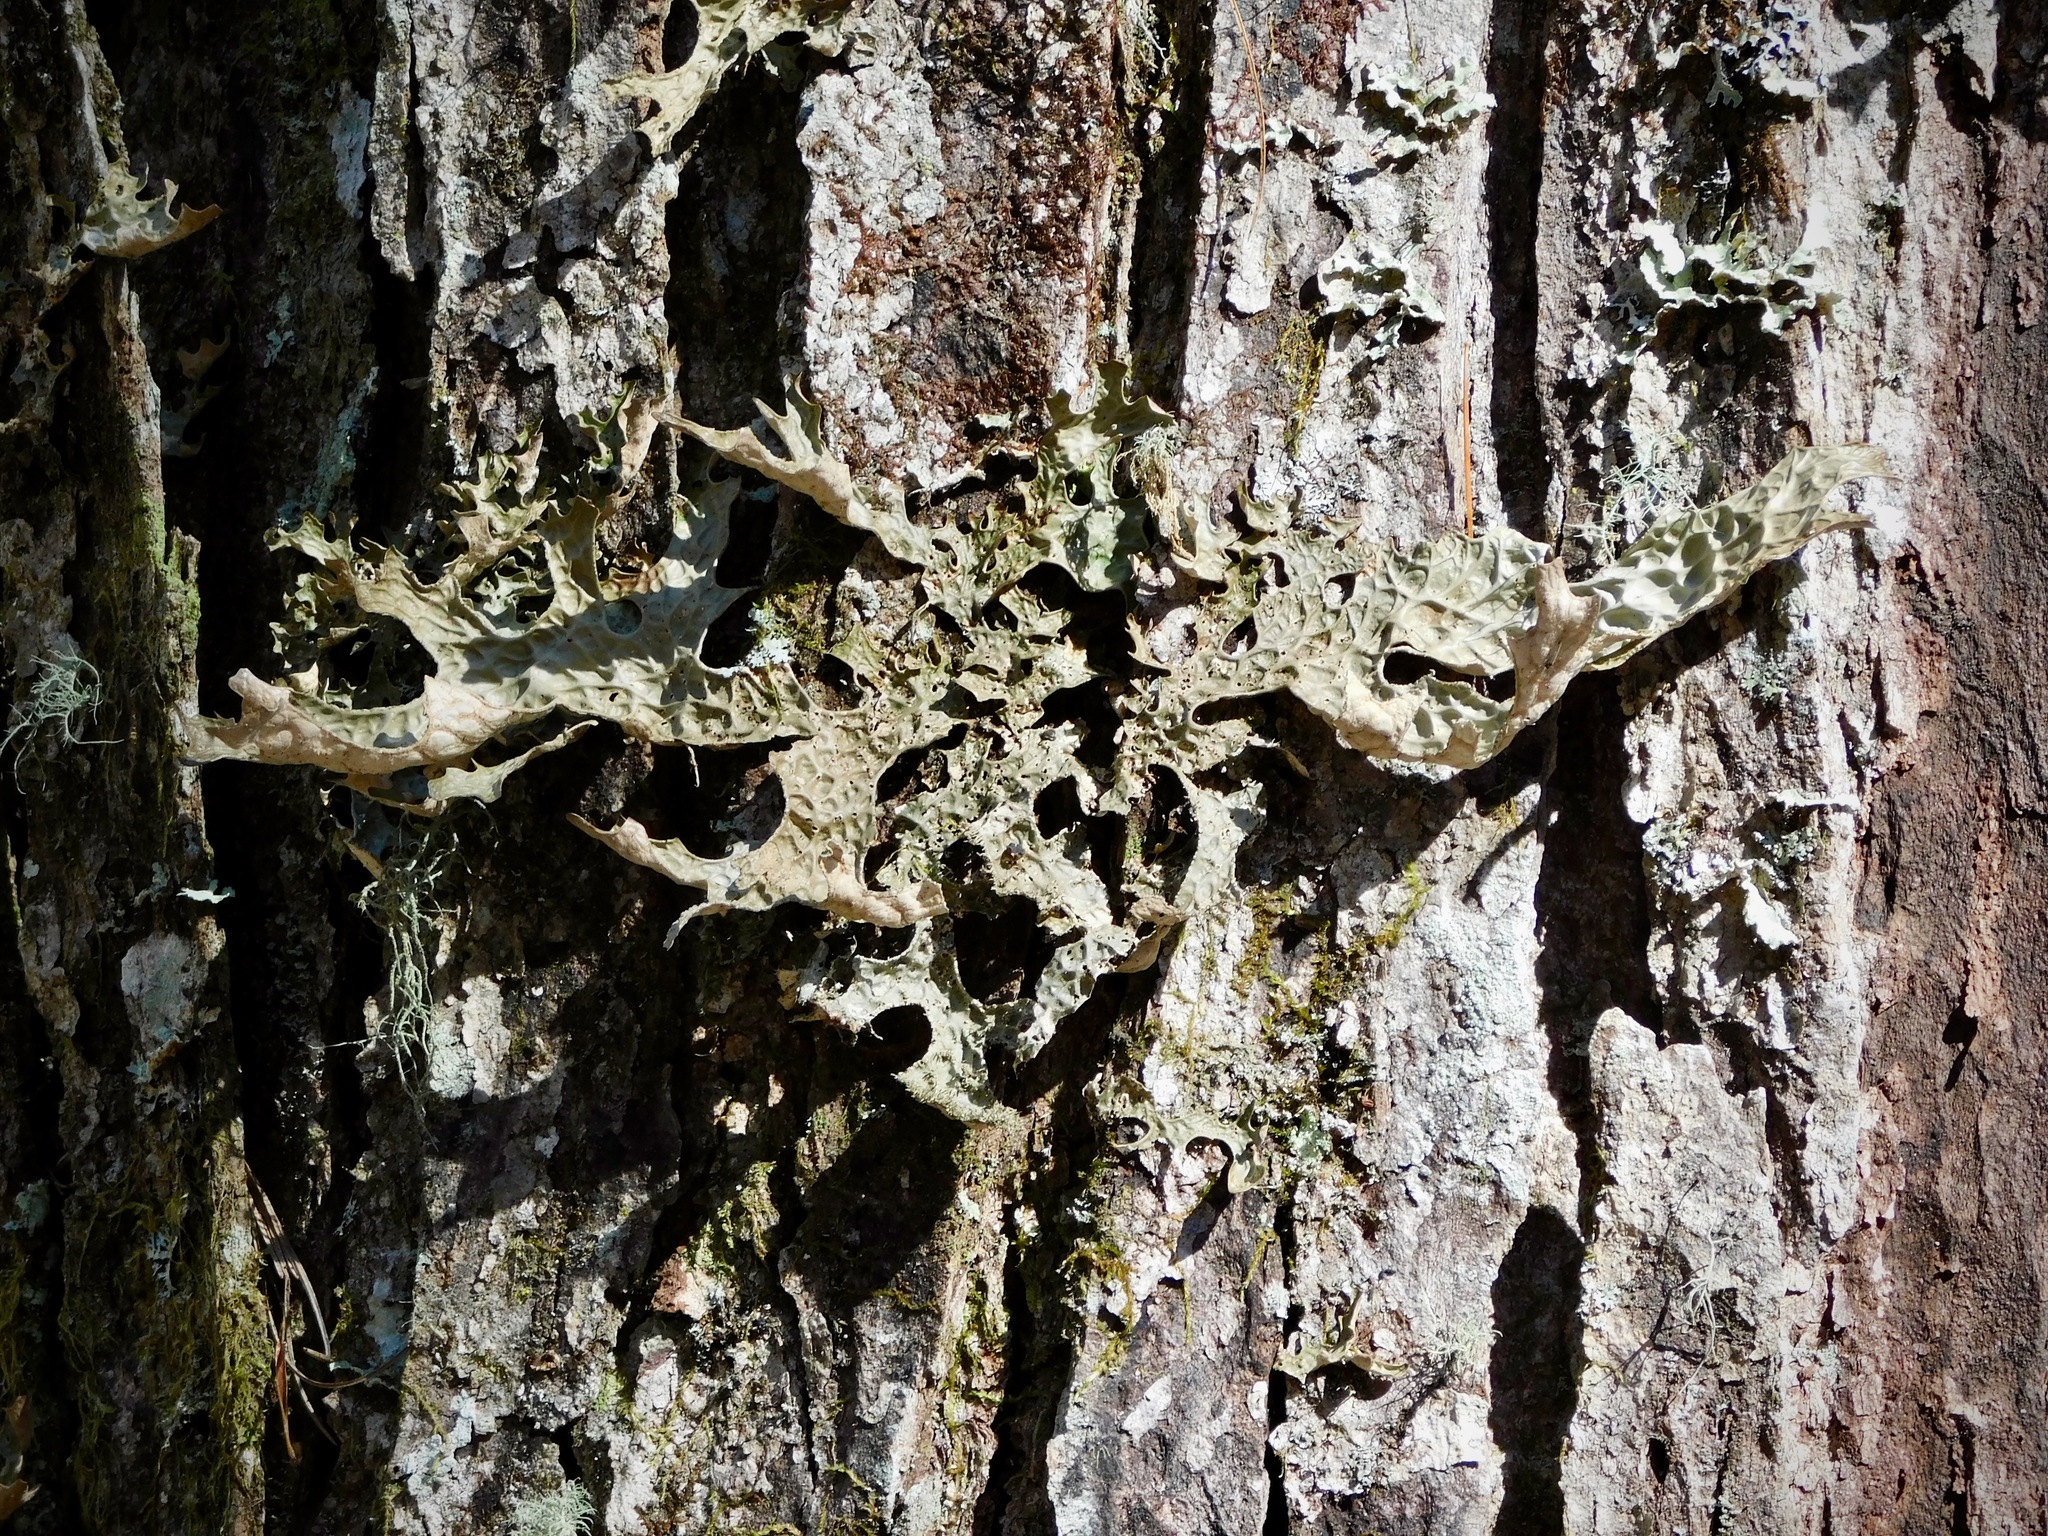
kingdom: Fungi
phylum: Ascomycota
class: Lecanoromycetes
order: Peltigerales
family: Lobariaceae
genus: Lobaria
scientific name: Lobaria pulmonaria
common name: Lungwort
